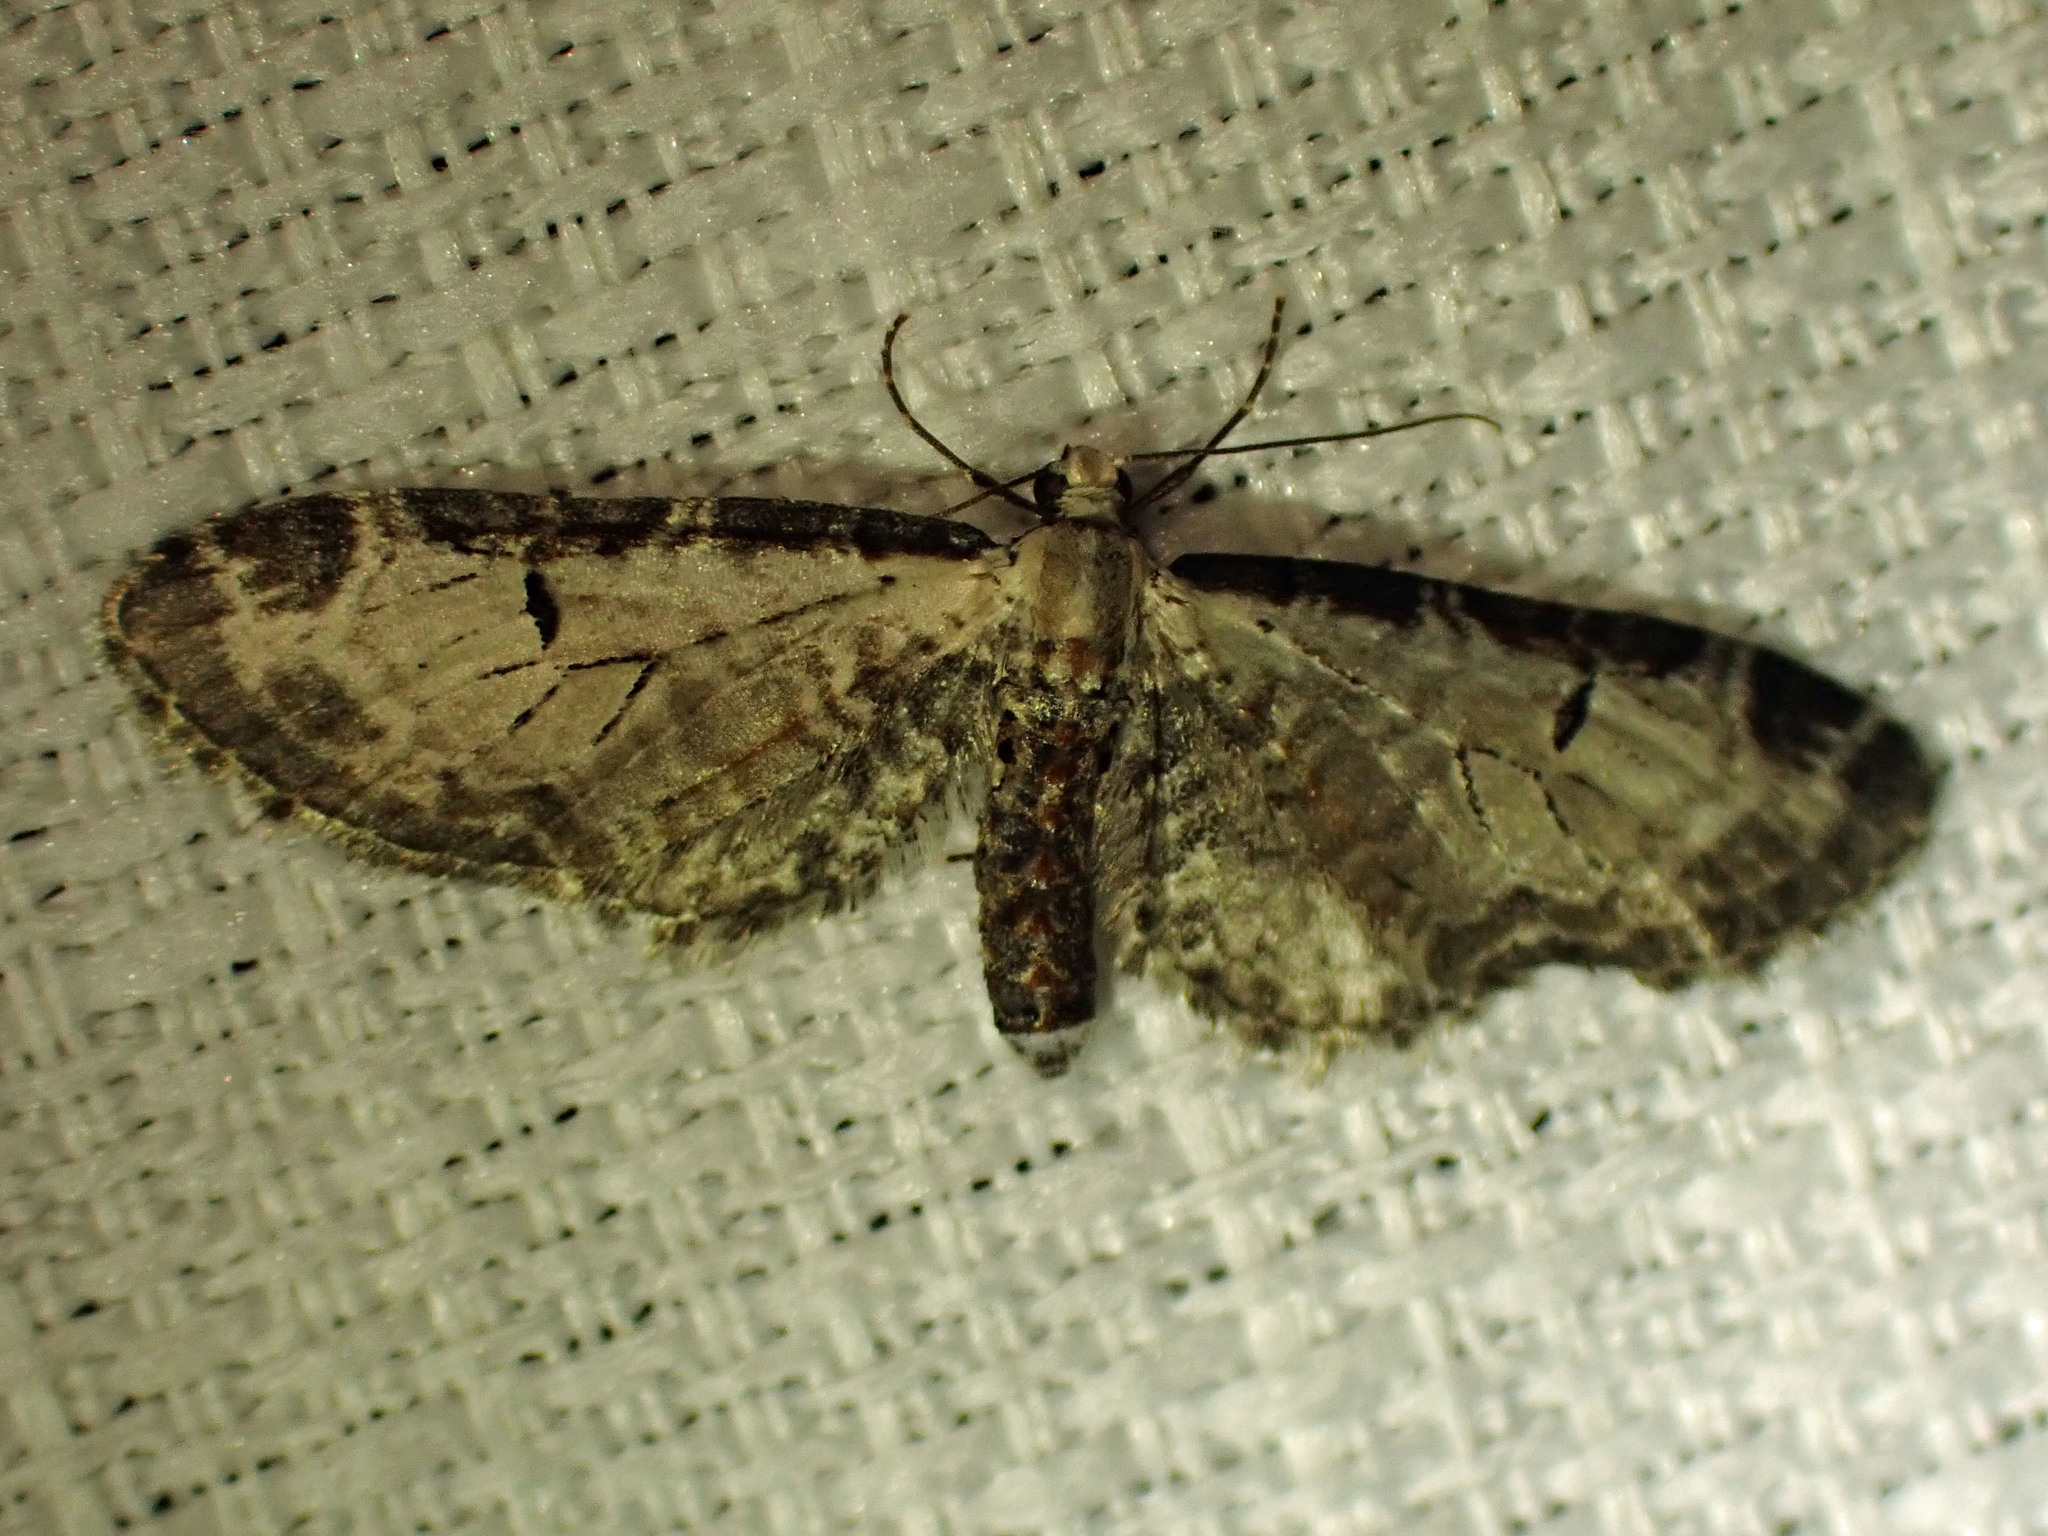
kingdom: Animalia
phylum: Arthropoda
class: Insecta
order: Lepidoptera
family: Geometridae
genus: Eupithecia
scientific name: Eupithecia ravocostaliata
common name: Great varigated pug
